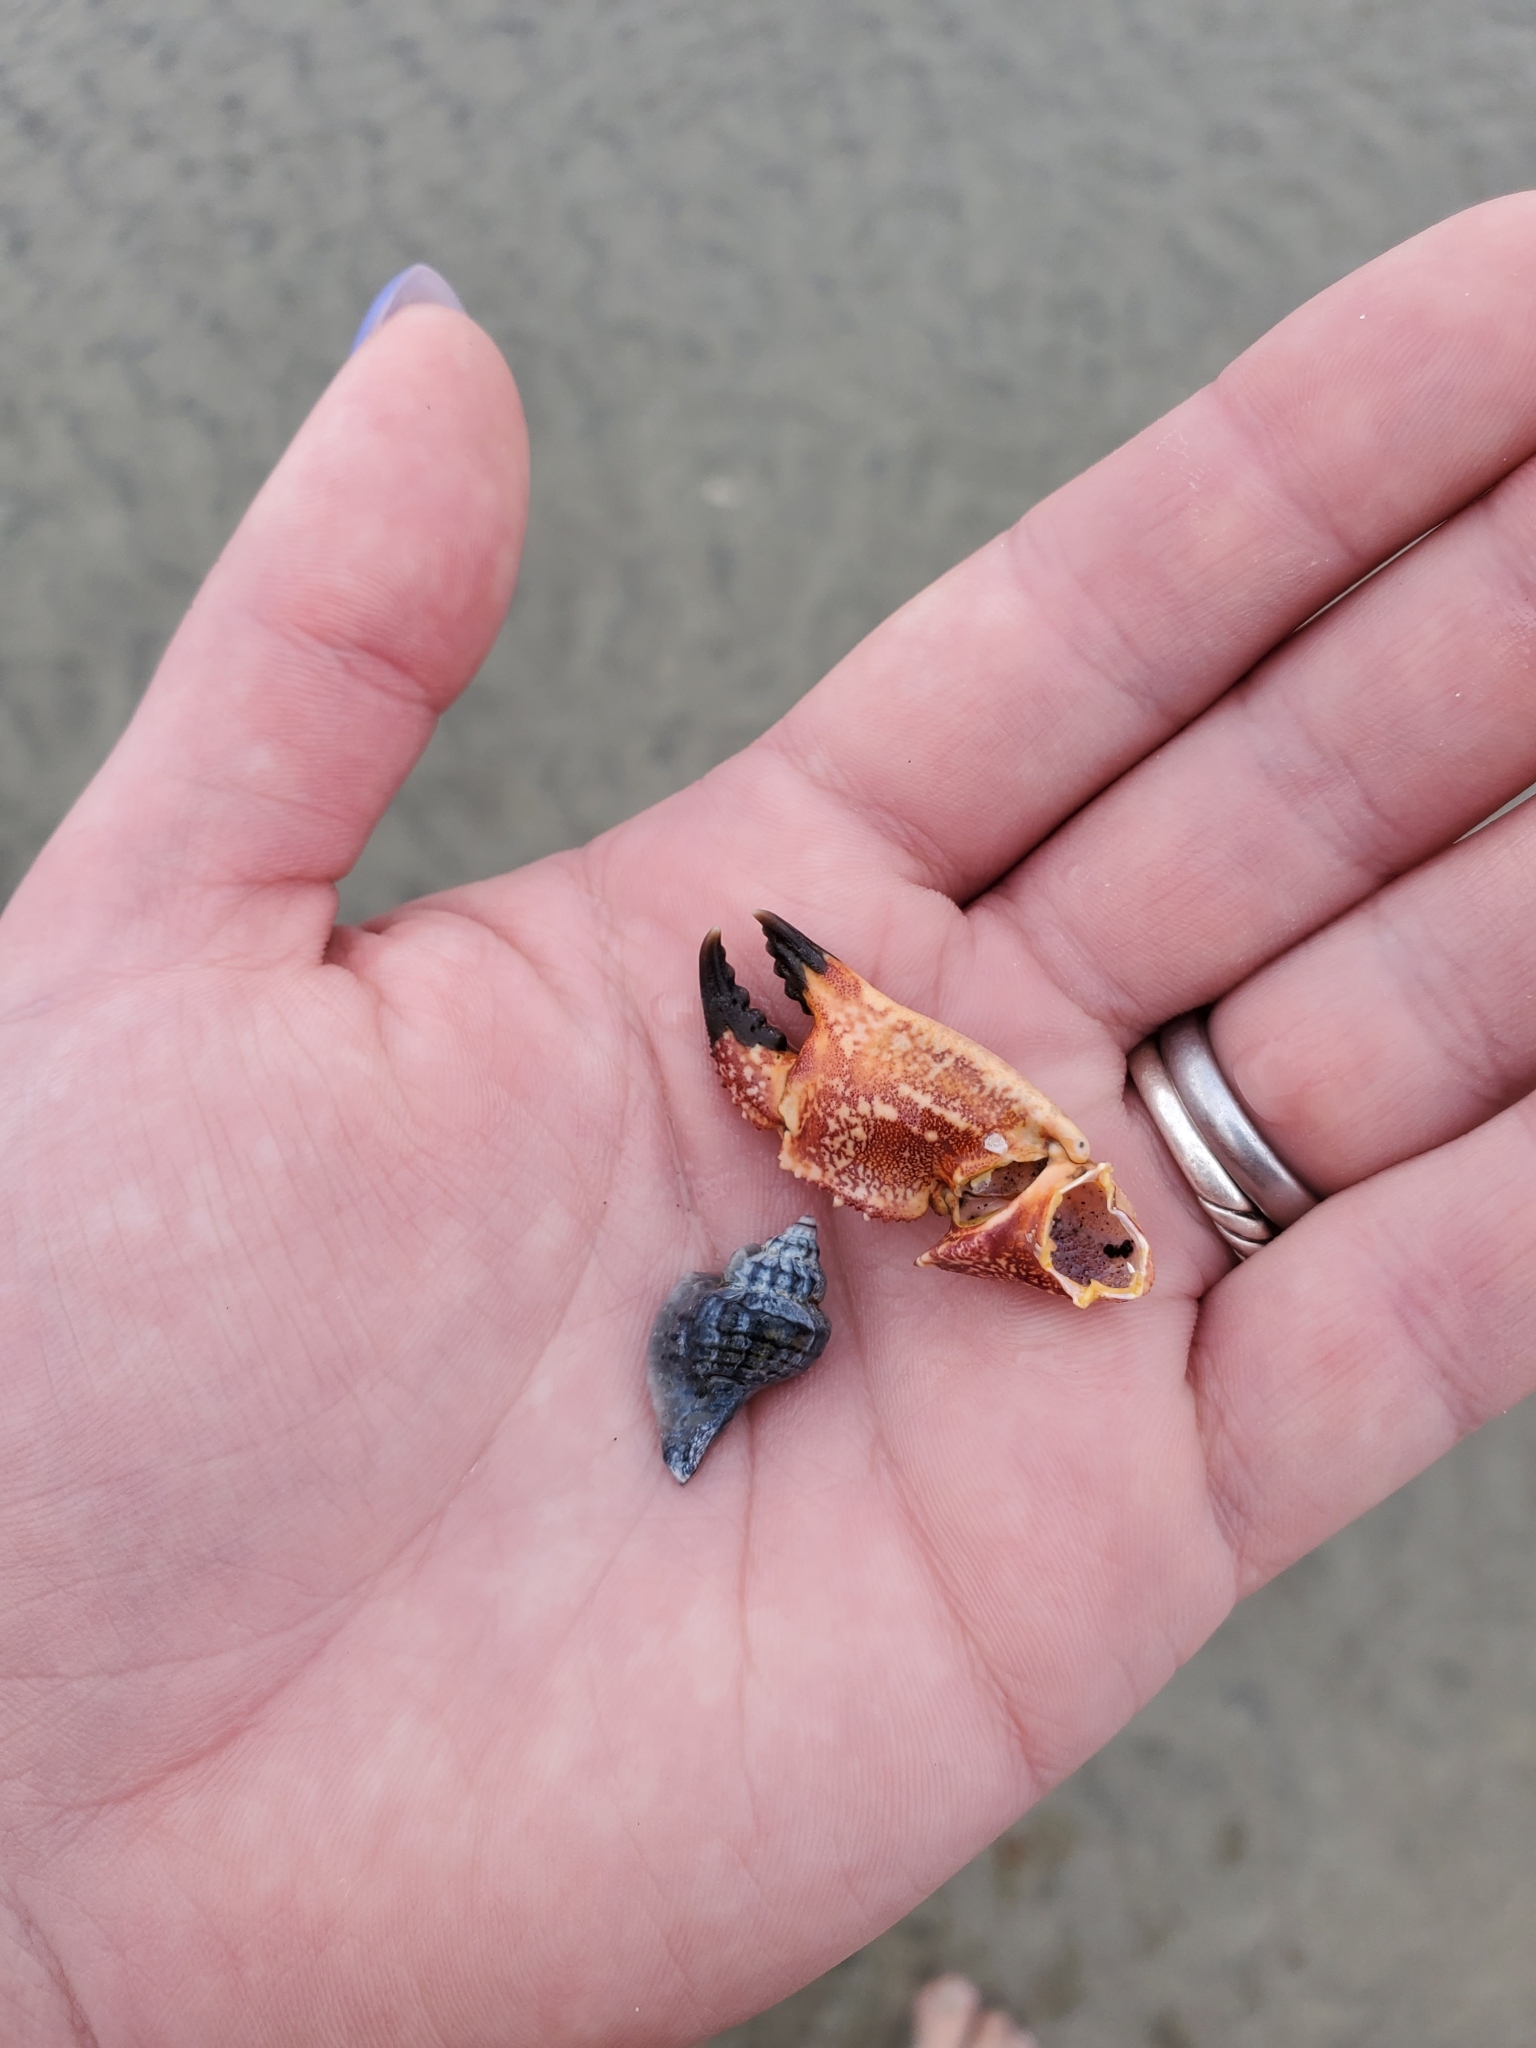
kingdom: Animalia
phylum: Arthropoda
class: Malacostraca
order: Decapoda
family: Cancridae
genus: Cancer
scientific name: Cancer borealis
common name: Jonah crab
